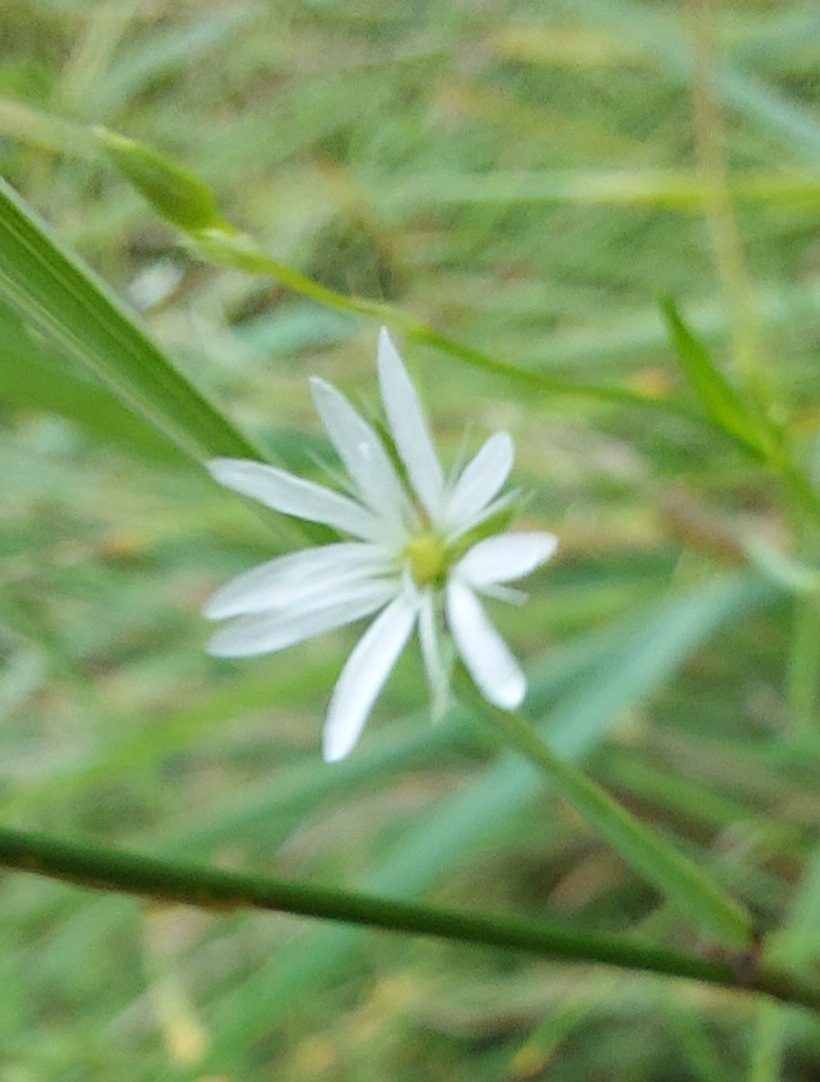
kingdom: Plantae
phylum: Tracheophyta
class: Magnoliopsida
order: Caryophyllales
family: Caryophyllaceae
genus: Stellaria
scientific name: Stellaria graminea
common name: Grass-like starwort
